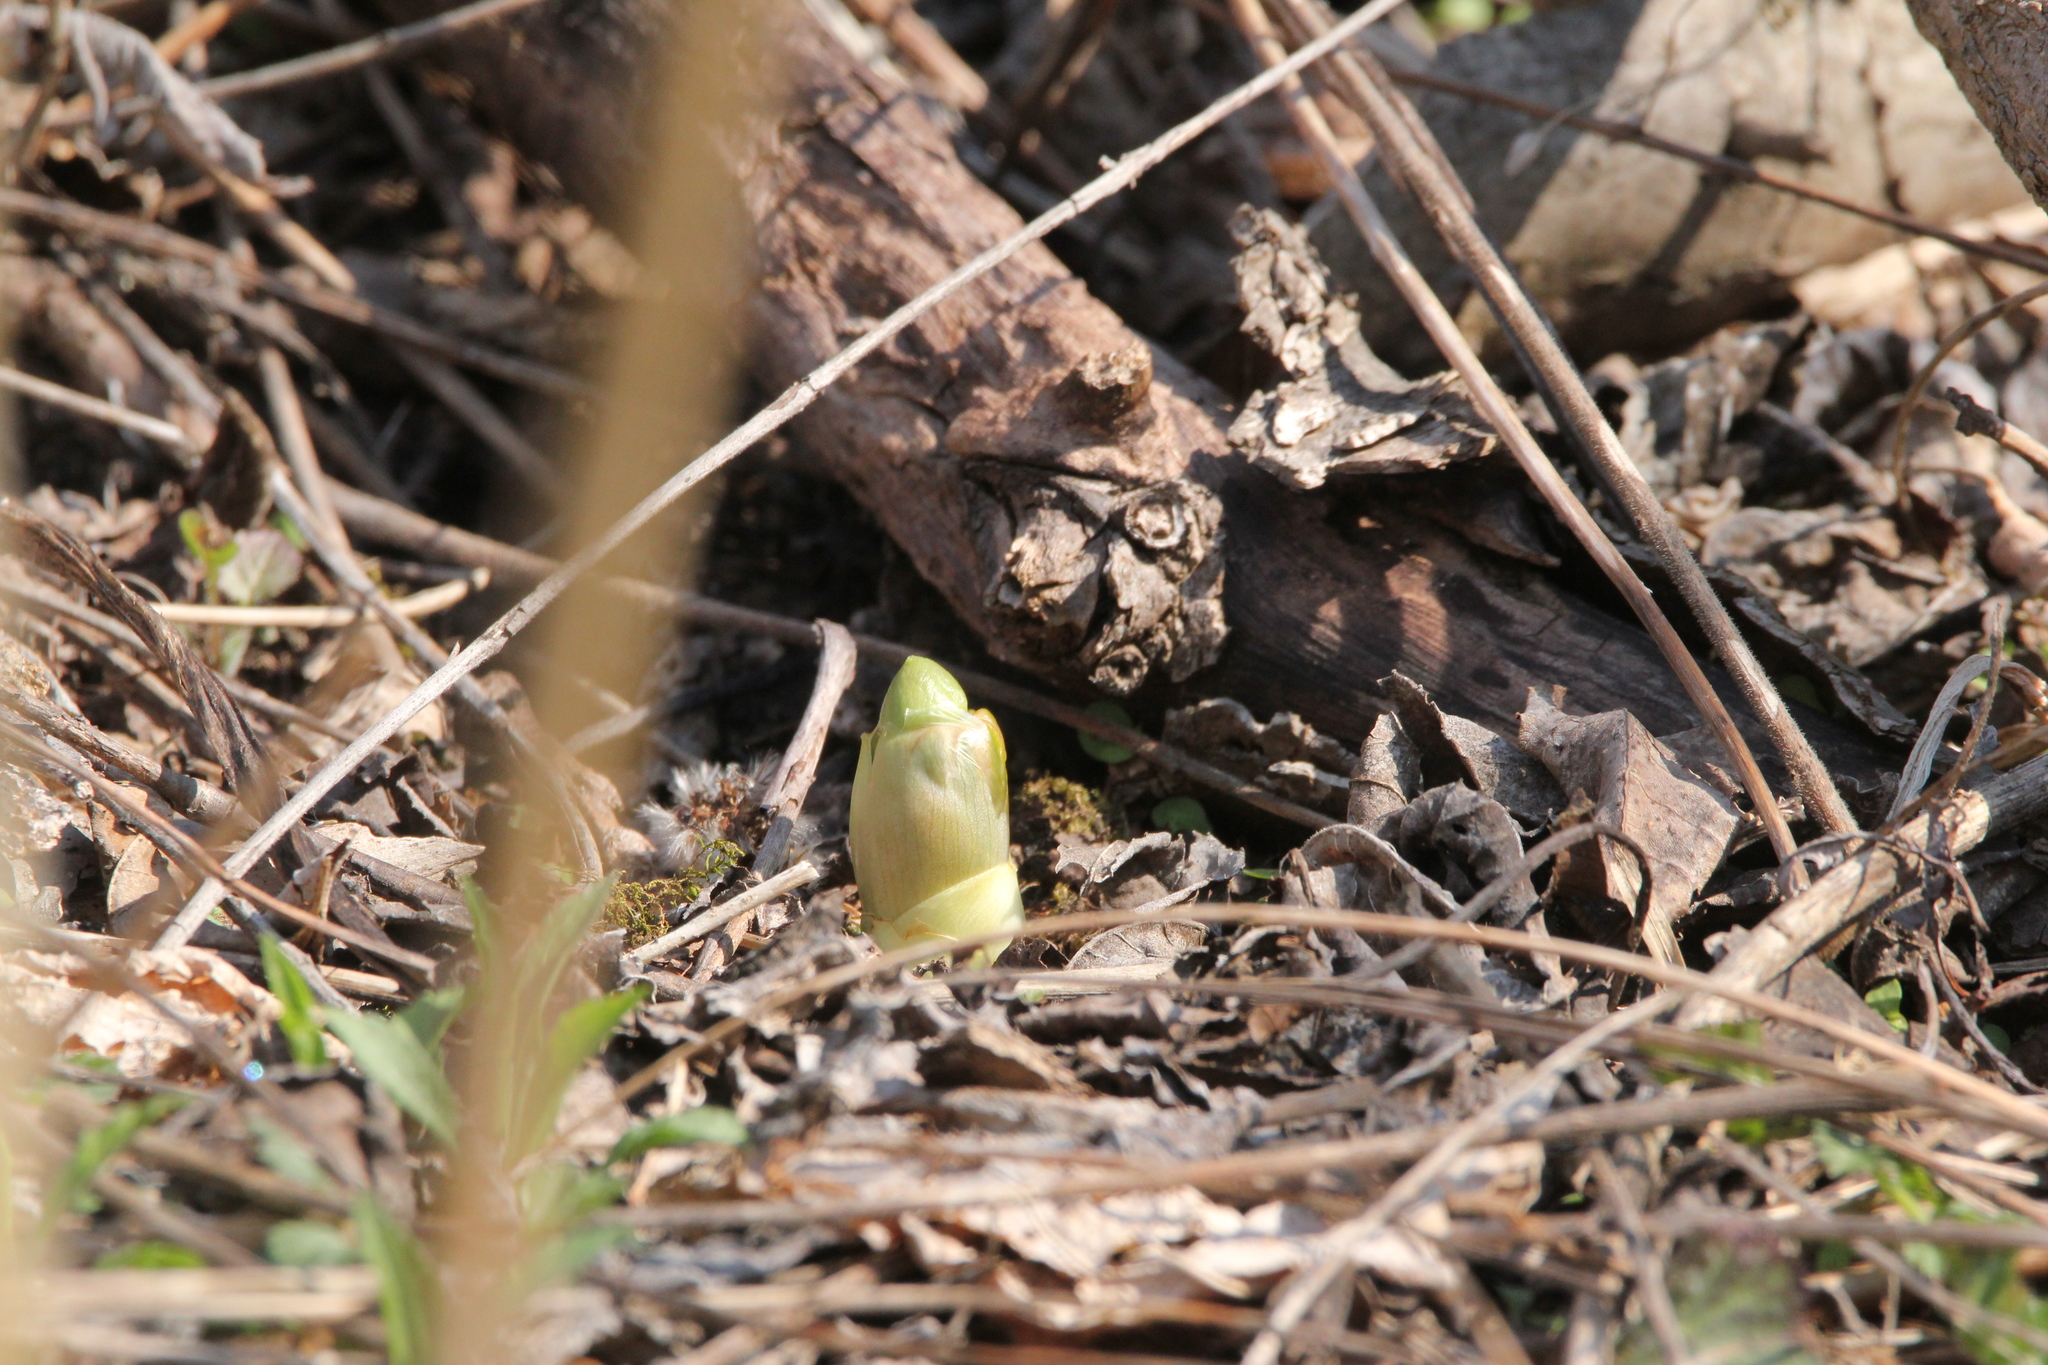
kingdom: Plantae
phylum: Tracheophyta
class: Magnoliopsida
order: Ranunculales
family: Berberidaceae
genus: Podophyllum
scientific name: Podophyllum peltatum
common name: Wild mandrake
